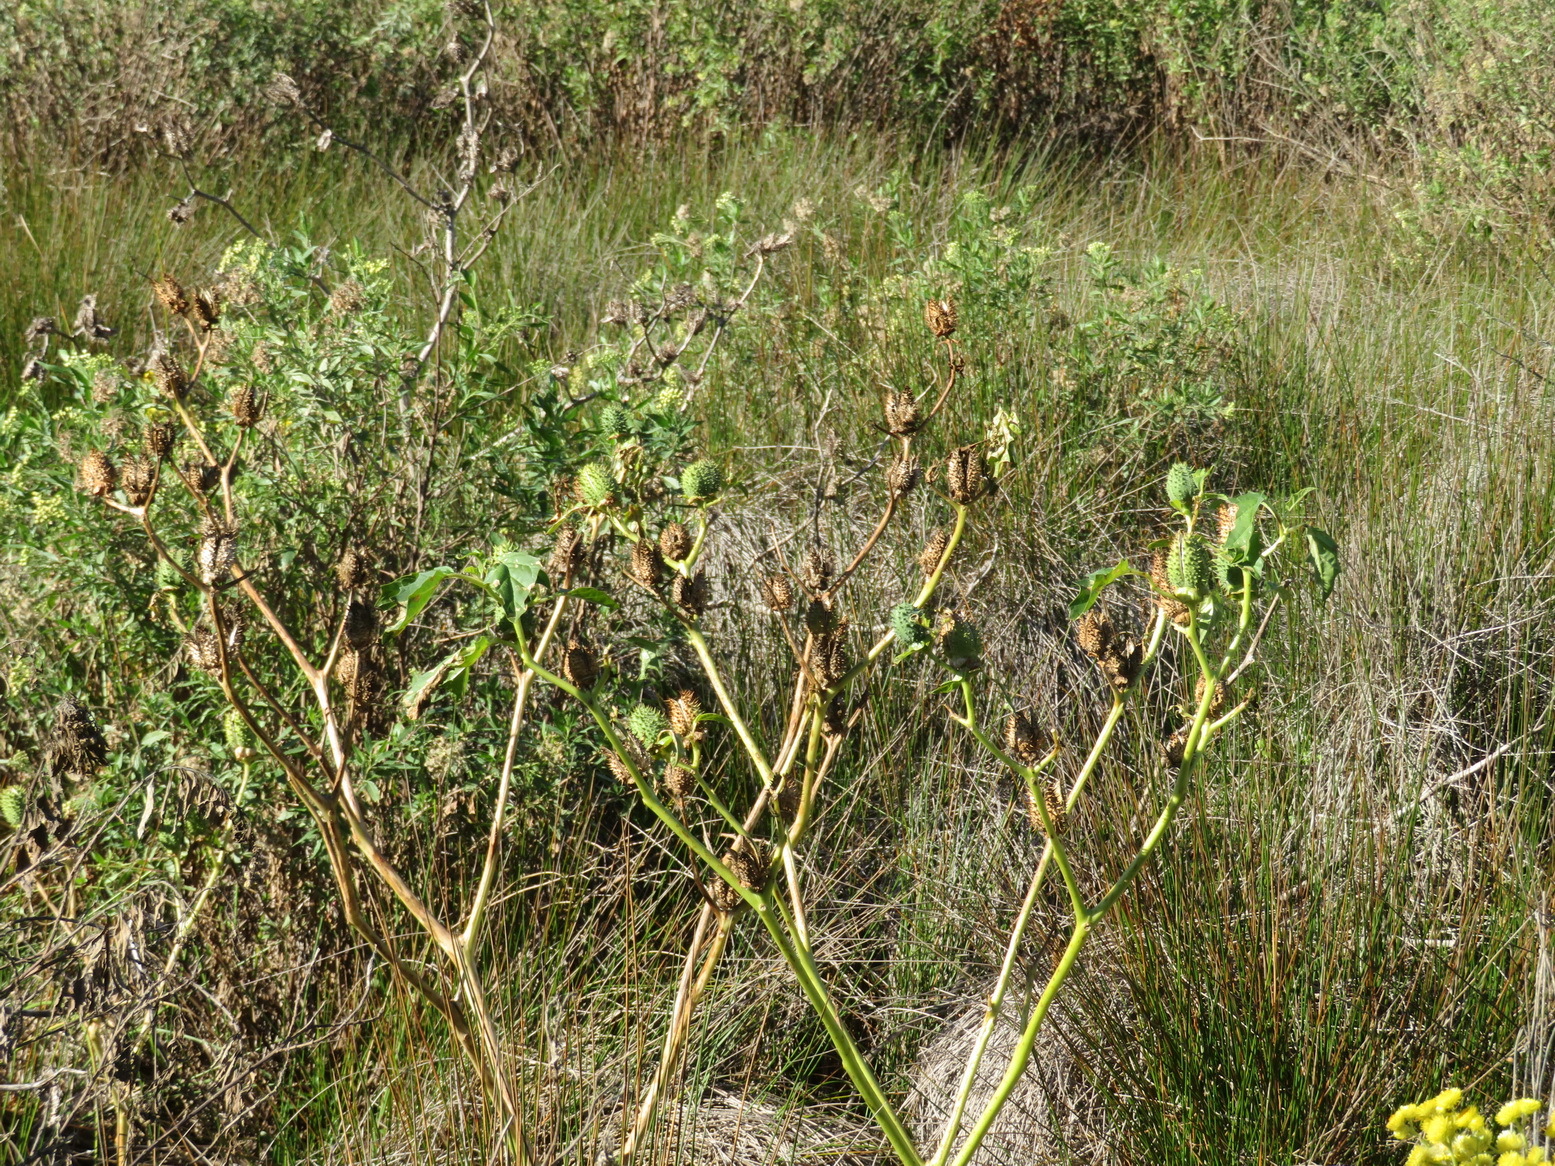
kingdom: Plantae
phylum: Tracheophyta
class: Magnoliopsida
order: Solanales
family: Solanaceae
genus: Datura
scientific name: Datura stramonium
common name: Thorn-apple
